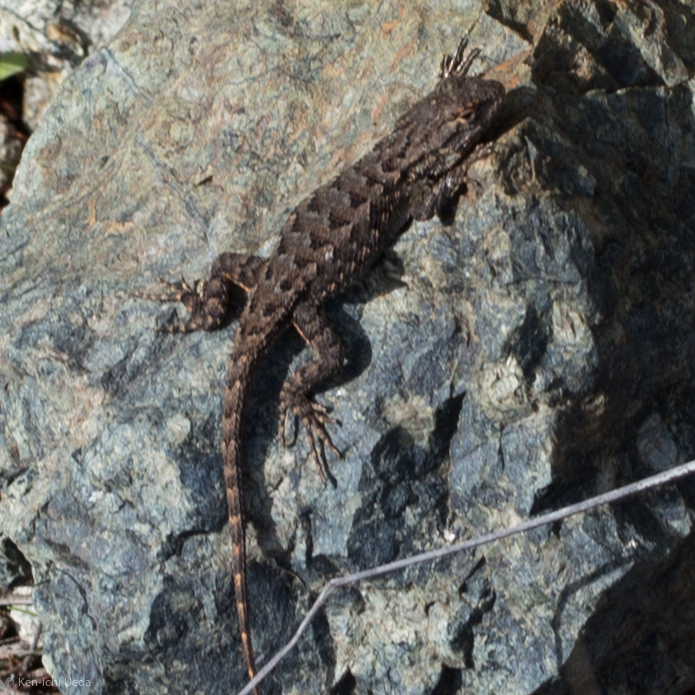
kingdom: Animalia
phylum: Chordata
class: Squamata
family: Phrynosomatidae
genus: Sceloporus
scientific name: Sceloporus occidentalis
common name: Western fence lizard
